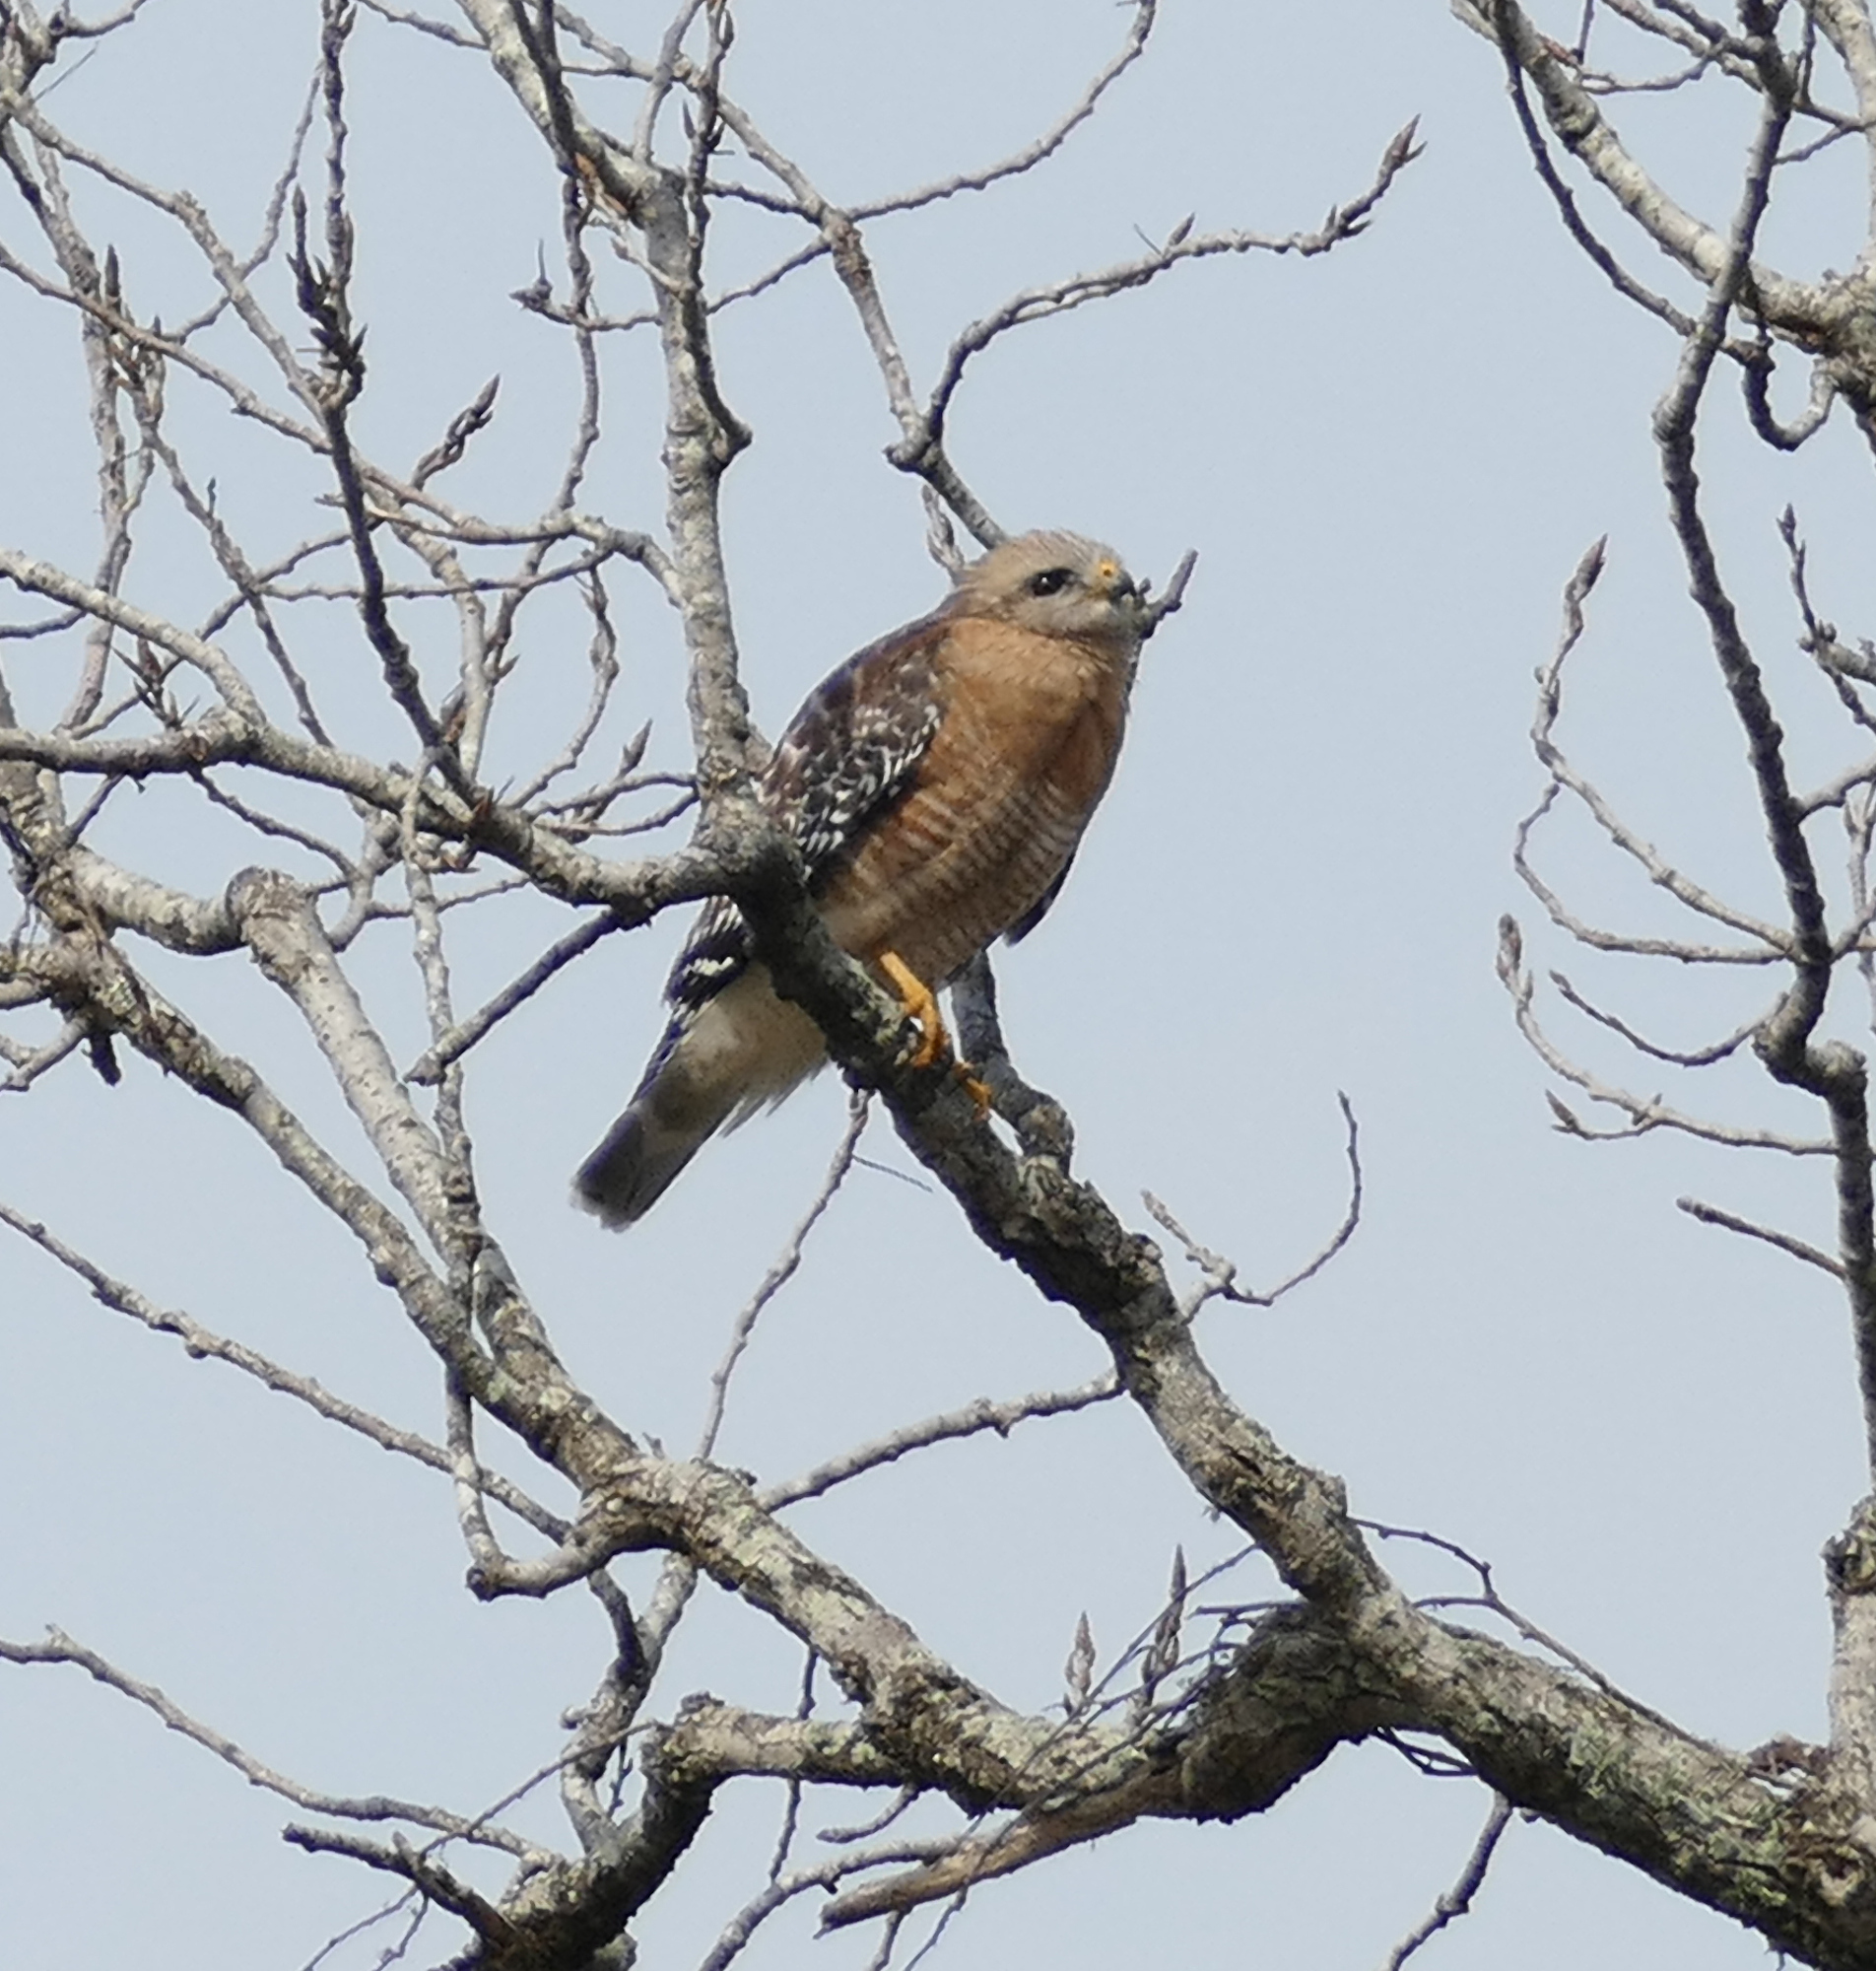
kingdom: Animalia
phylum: Chordata
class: Aves
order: Accipitriformes
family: Accipitridae
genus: Buteo
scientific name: Buteo lineatus
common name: Red-shouldered hawk
